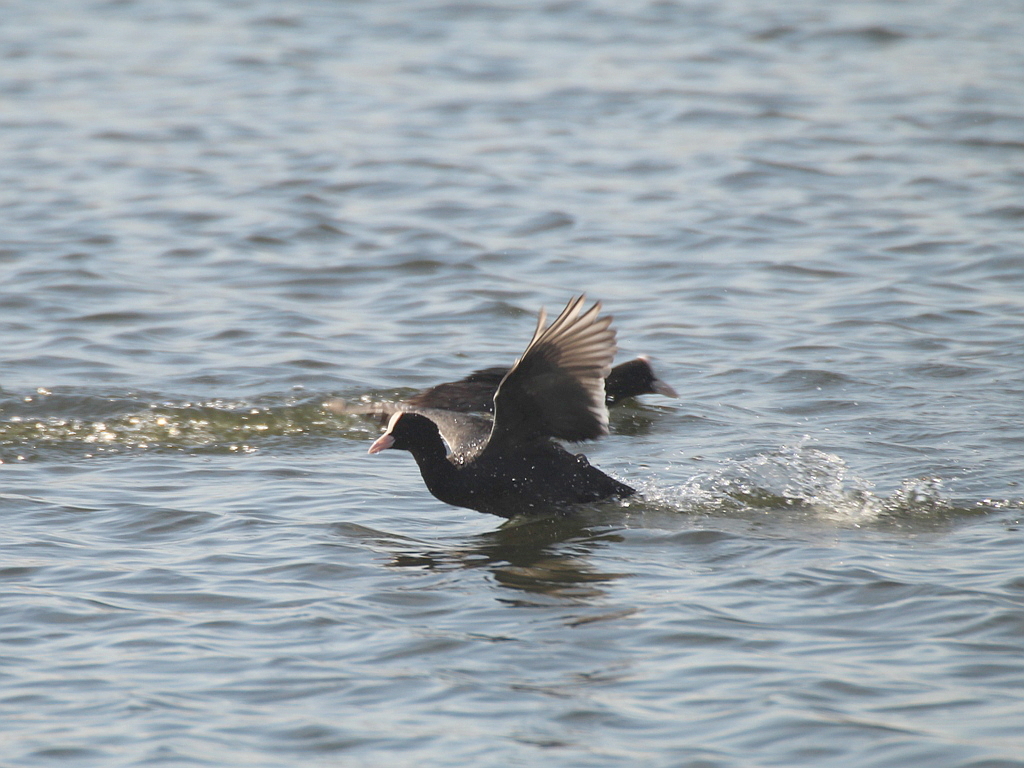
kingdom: Animalia
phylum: Chordata
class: Aves
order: Gruiformes
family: Rallidae
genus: Fulica
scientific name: Fulica atra
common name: Eurasian coot
